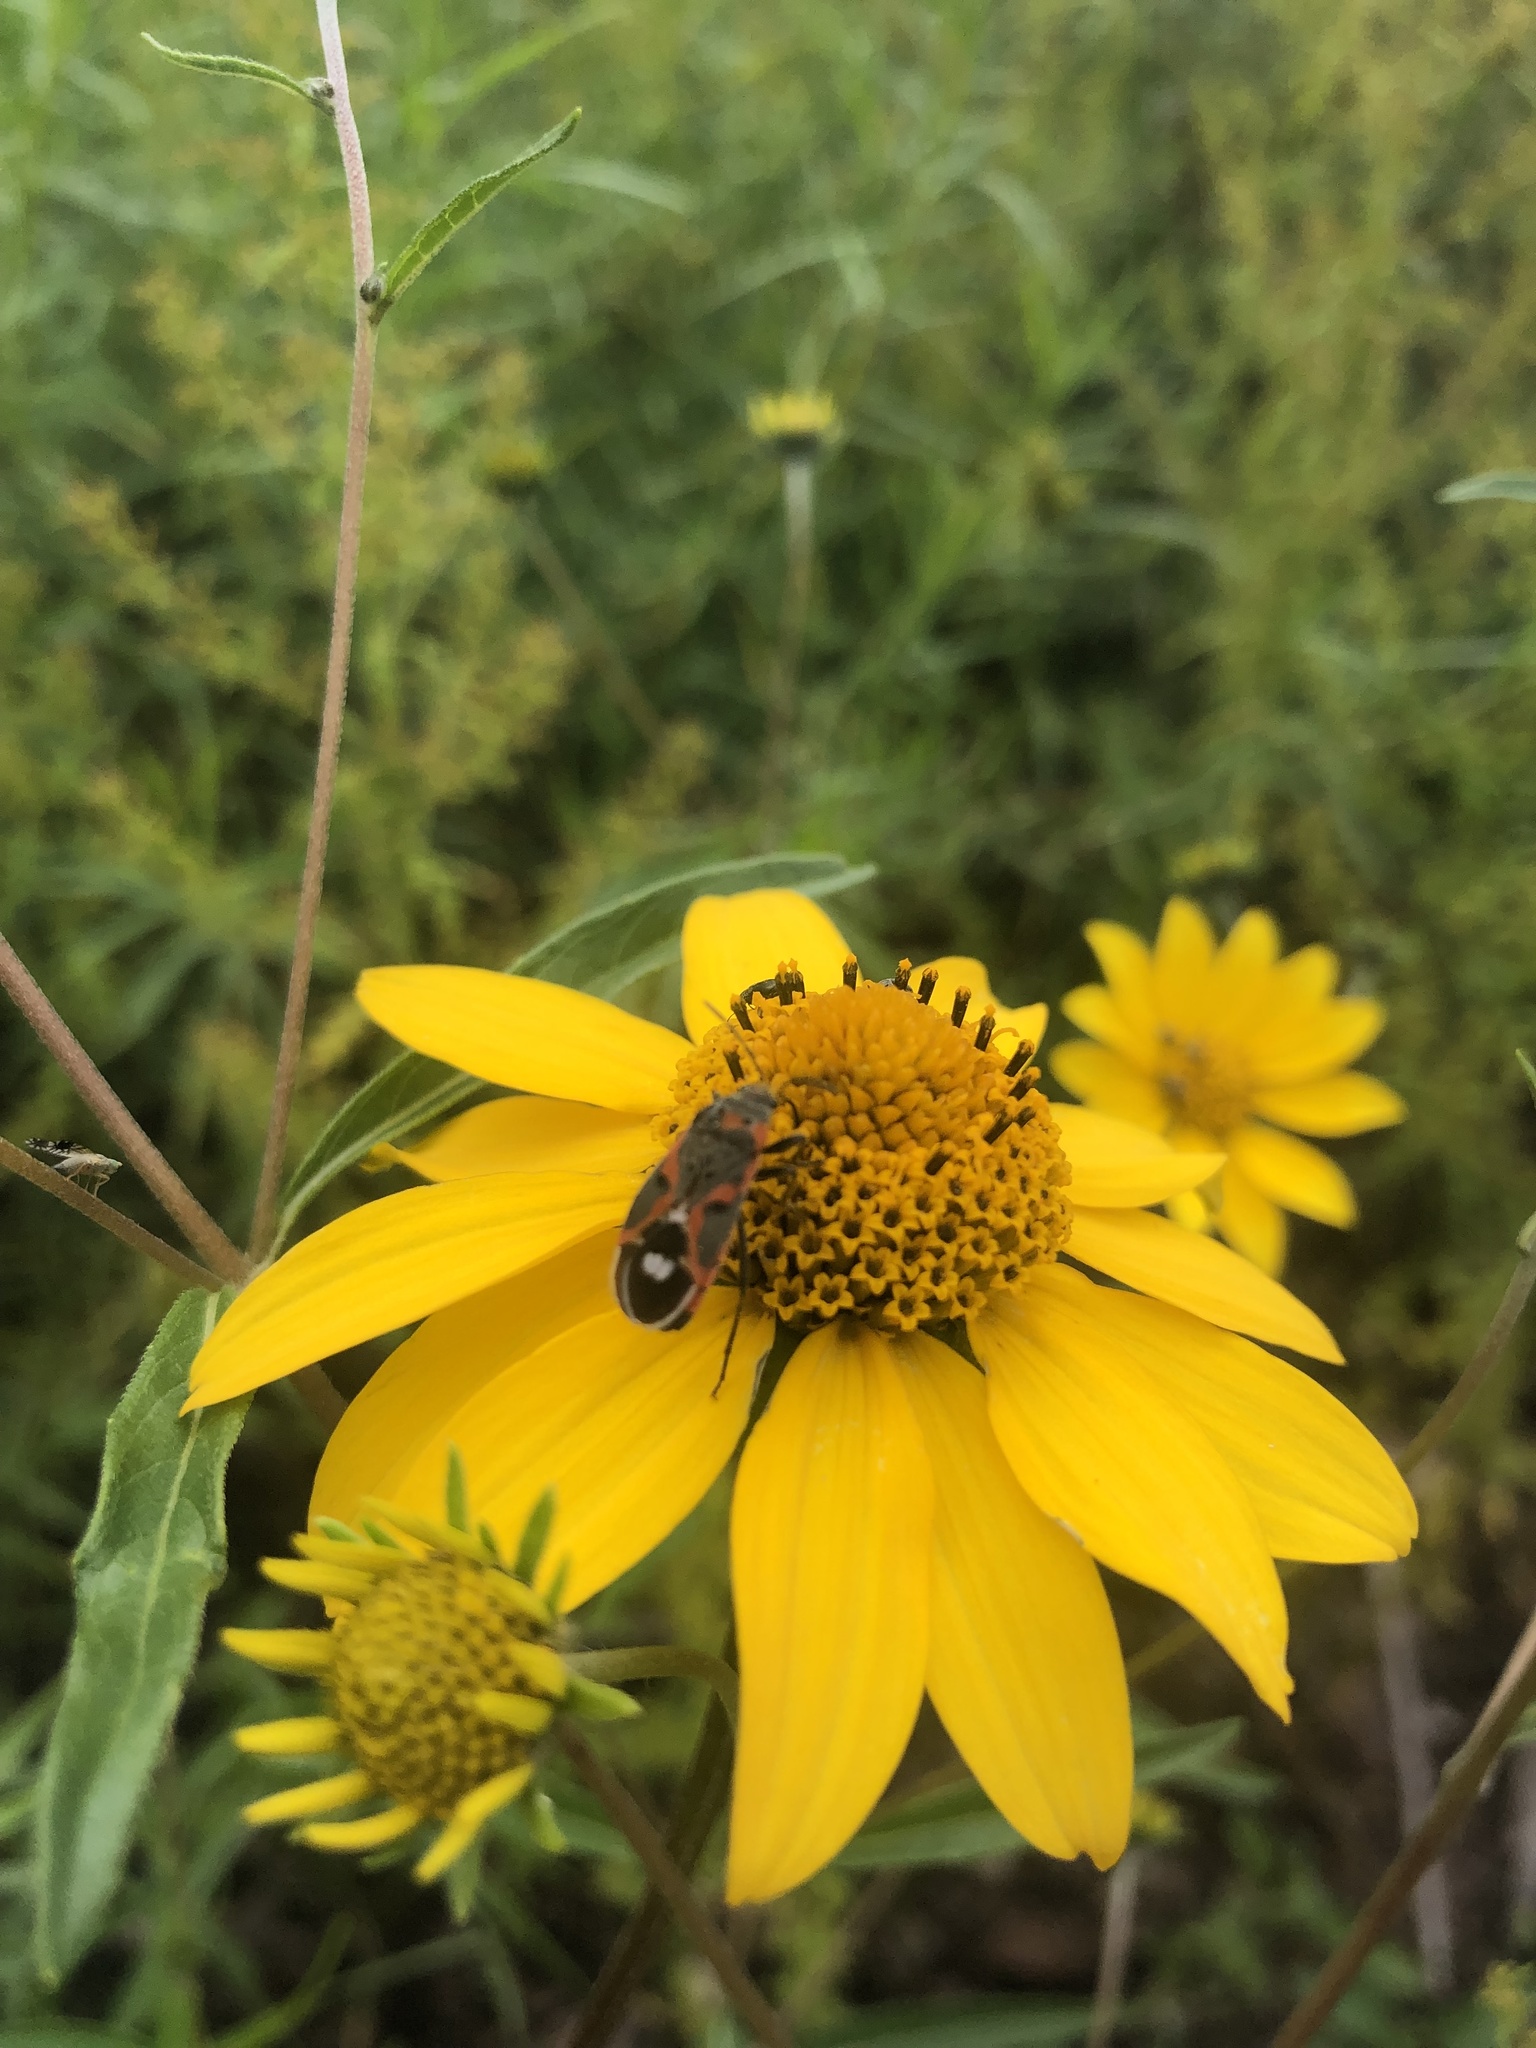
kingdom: Animalia
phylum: Arthropoda
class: Insecta
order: Hemiptera
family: Lygaeidae
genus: Lygaeus
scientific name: Lygaeus kalmii
